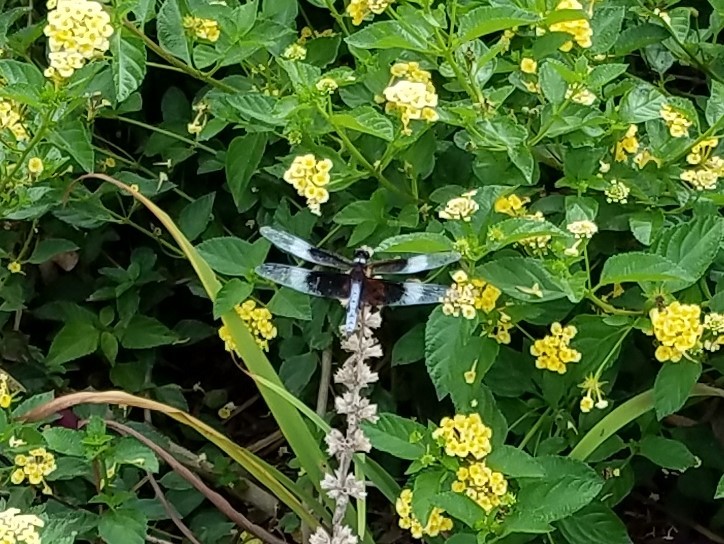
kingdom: Animalia
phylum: Arthropoda
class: Insecta
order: Odonata
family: Libellulidae
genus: Libellula
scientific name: Libellula luctuosa
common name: Widow skimmer
